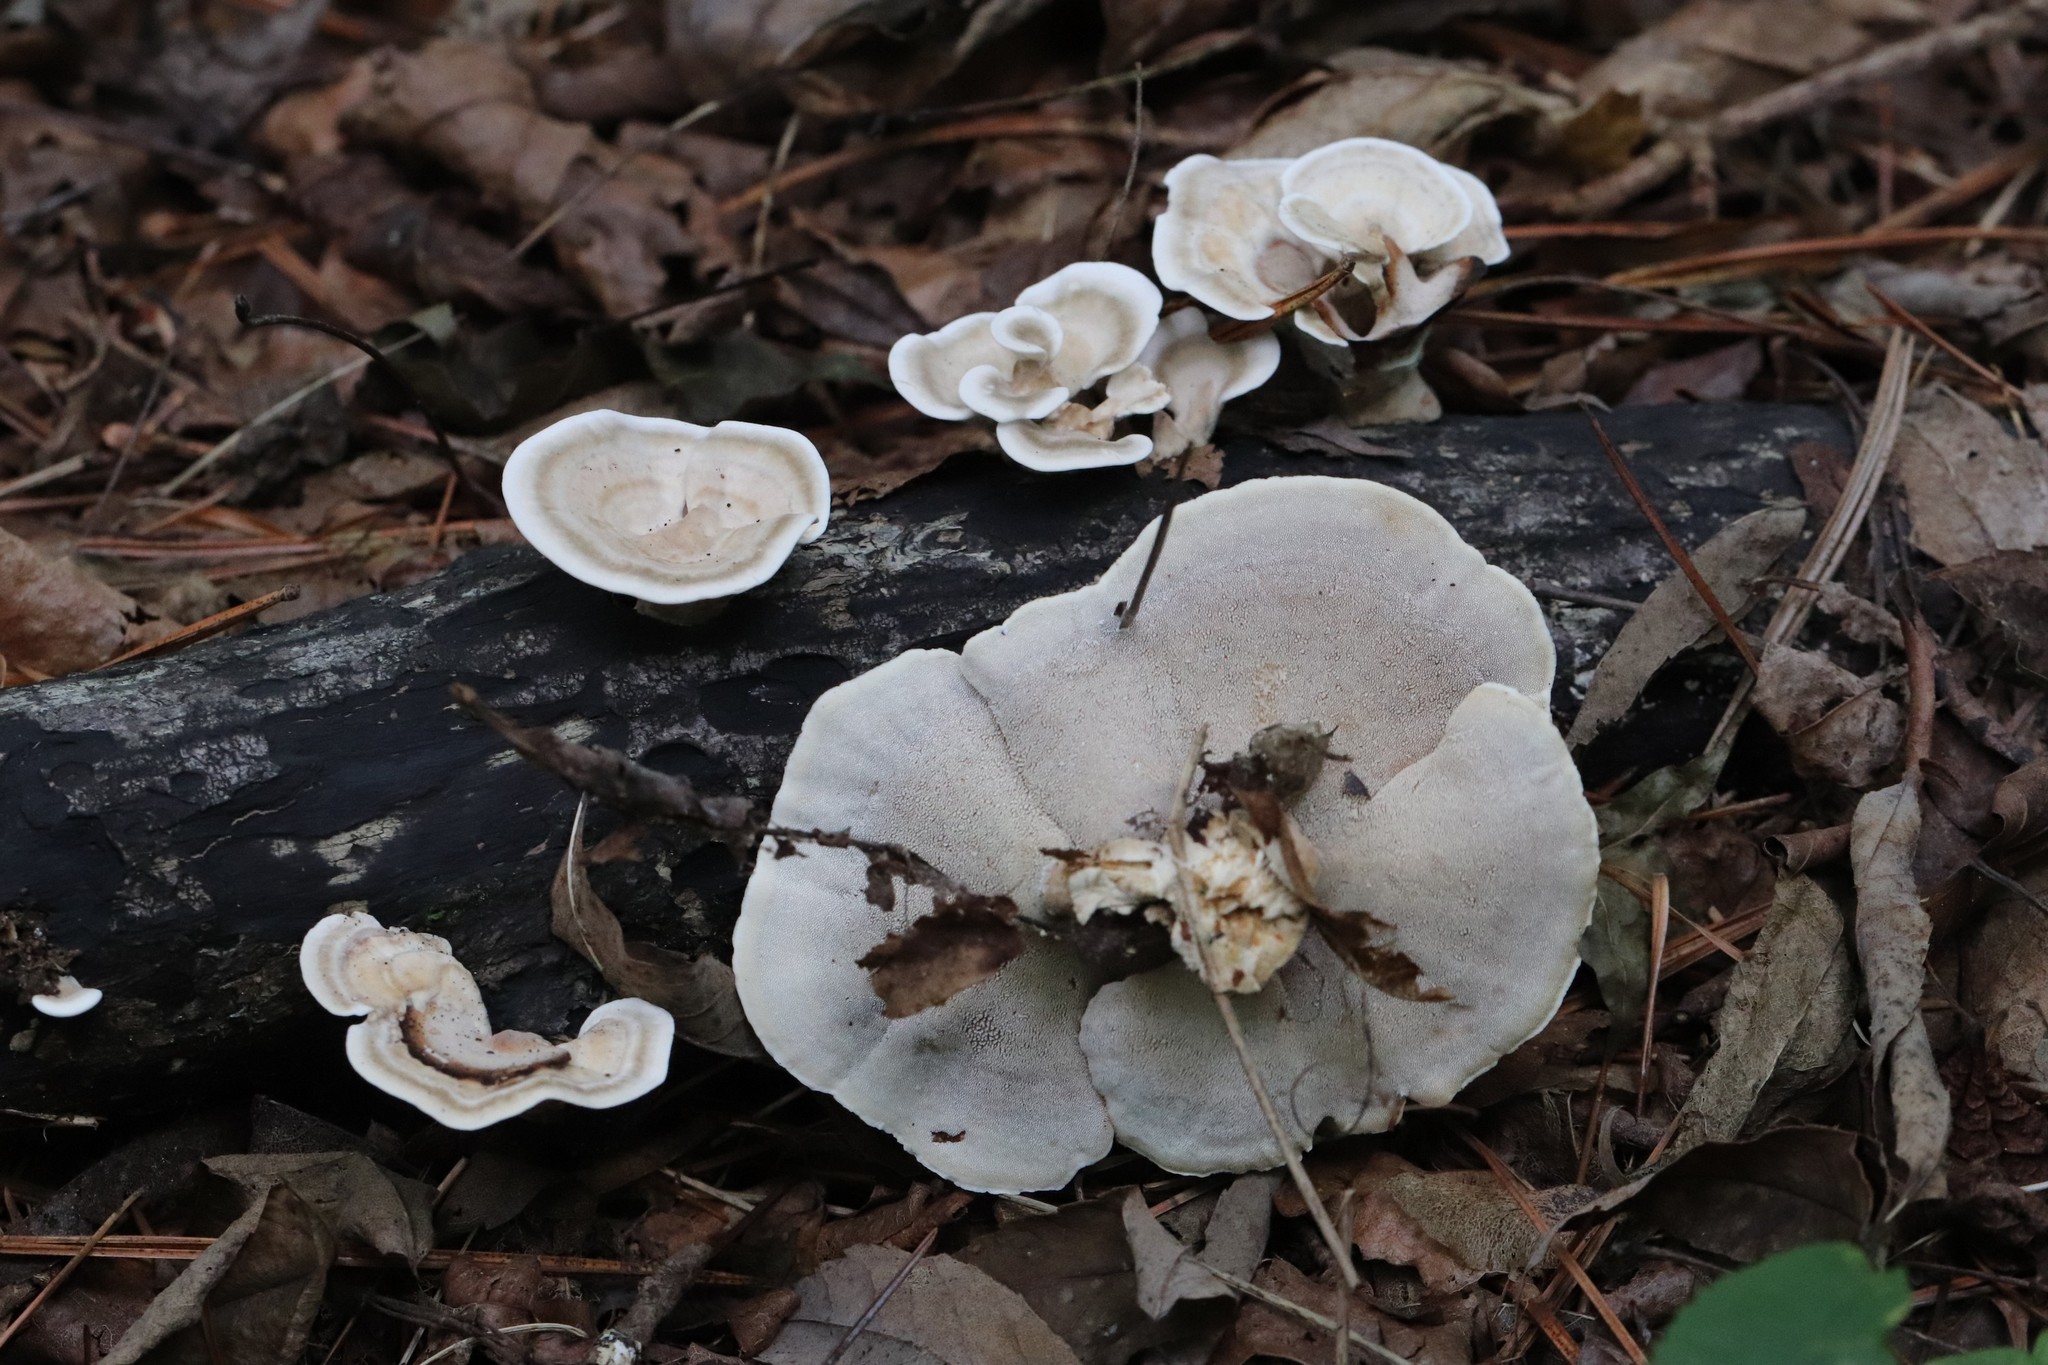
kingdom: Fungi
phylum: Basidiomycota
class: Agaricomycetes
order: Polyporales
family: Steccherinaceae
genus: Mycorrhaphium
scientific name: Mycorrhaphium adustum
